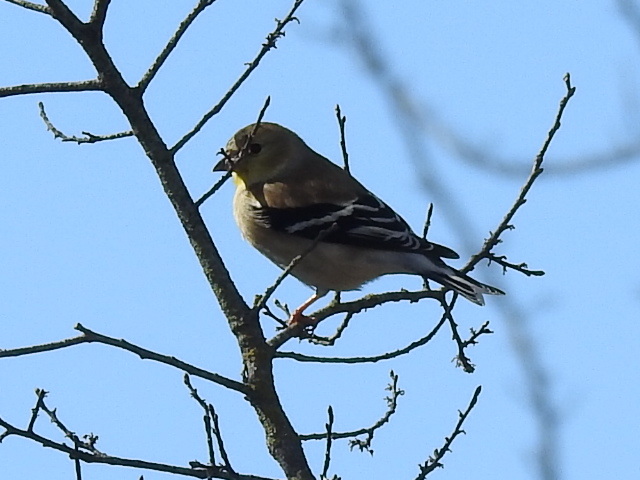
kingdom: Animalia
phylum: Chordata
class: Aves
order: Passeriformes
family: Fringillidae
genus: Spinus
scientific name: Spinus tristis
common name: American goldfinch
